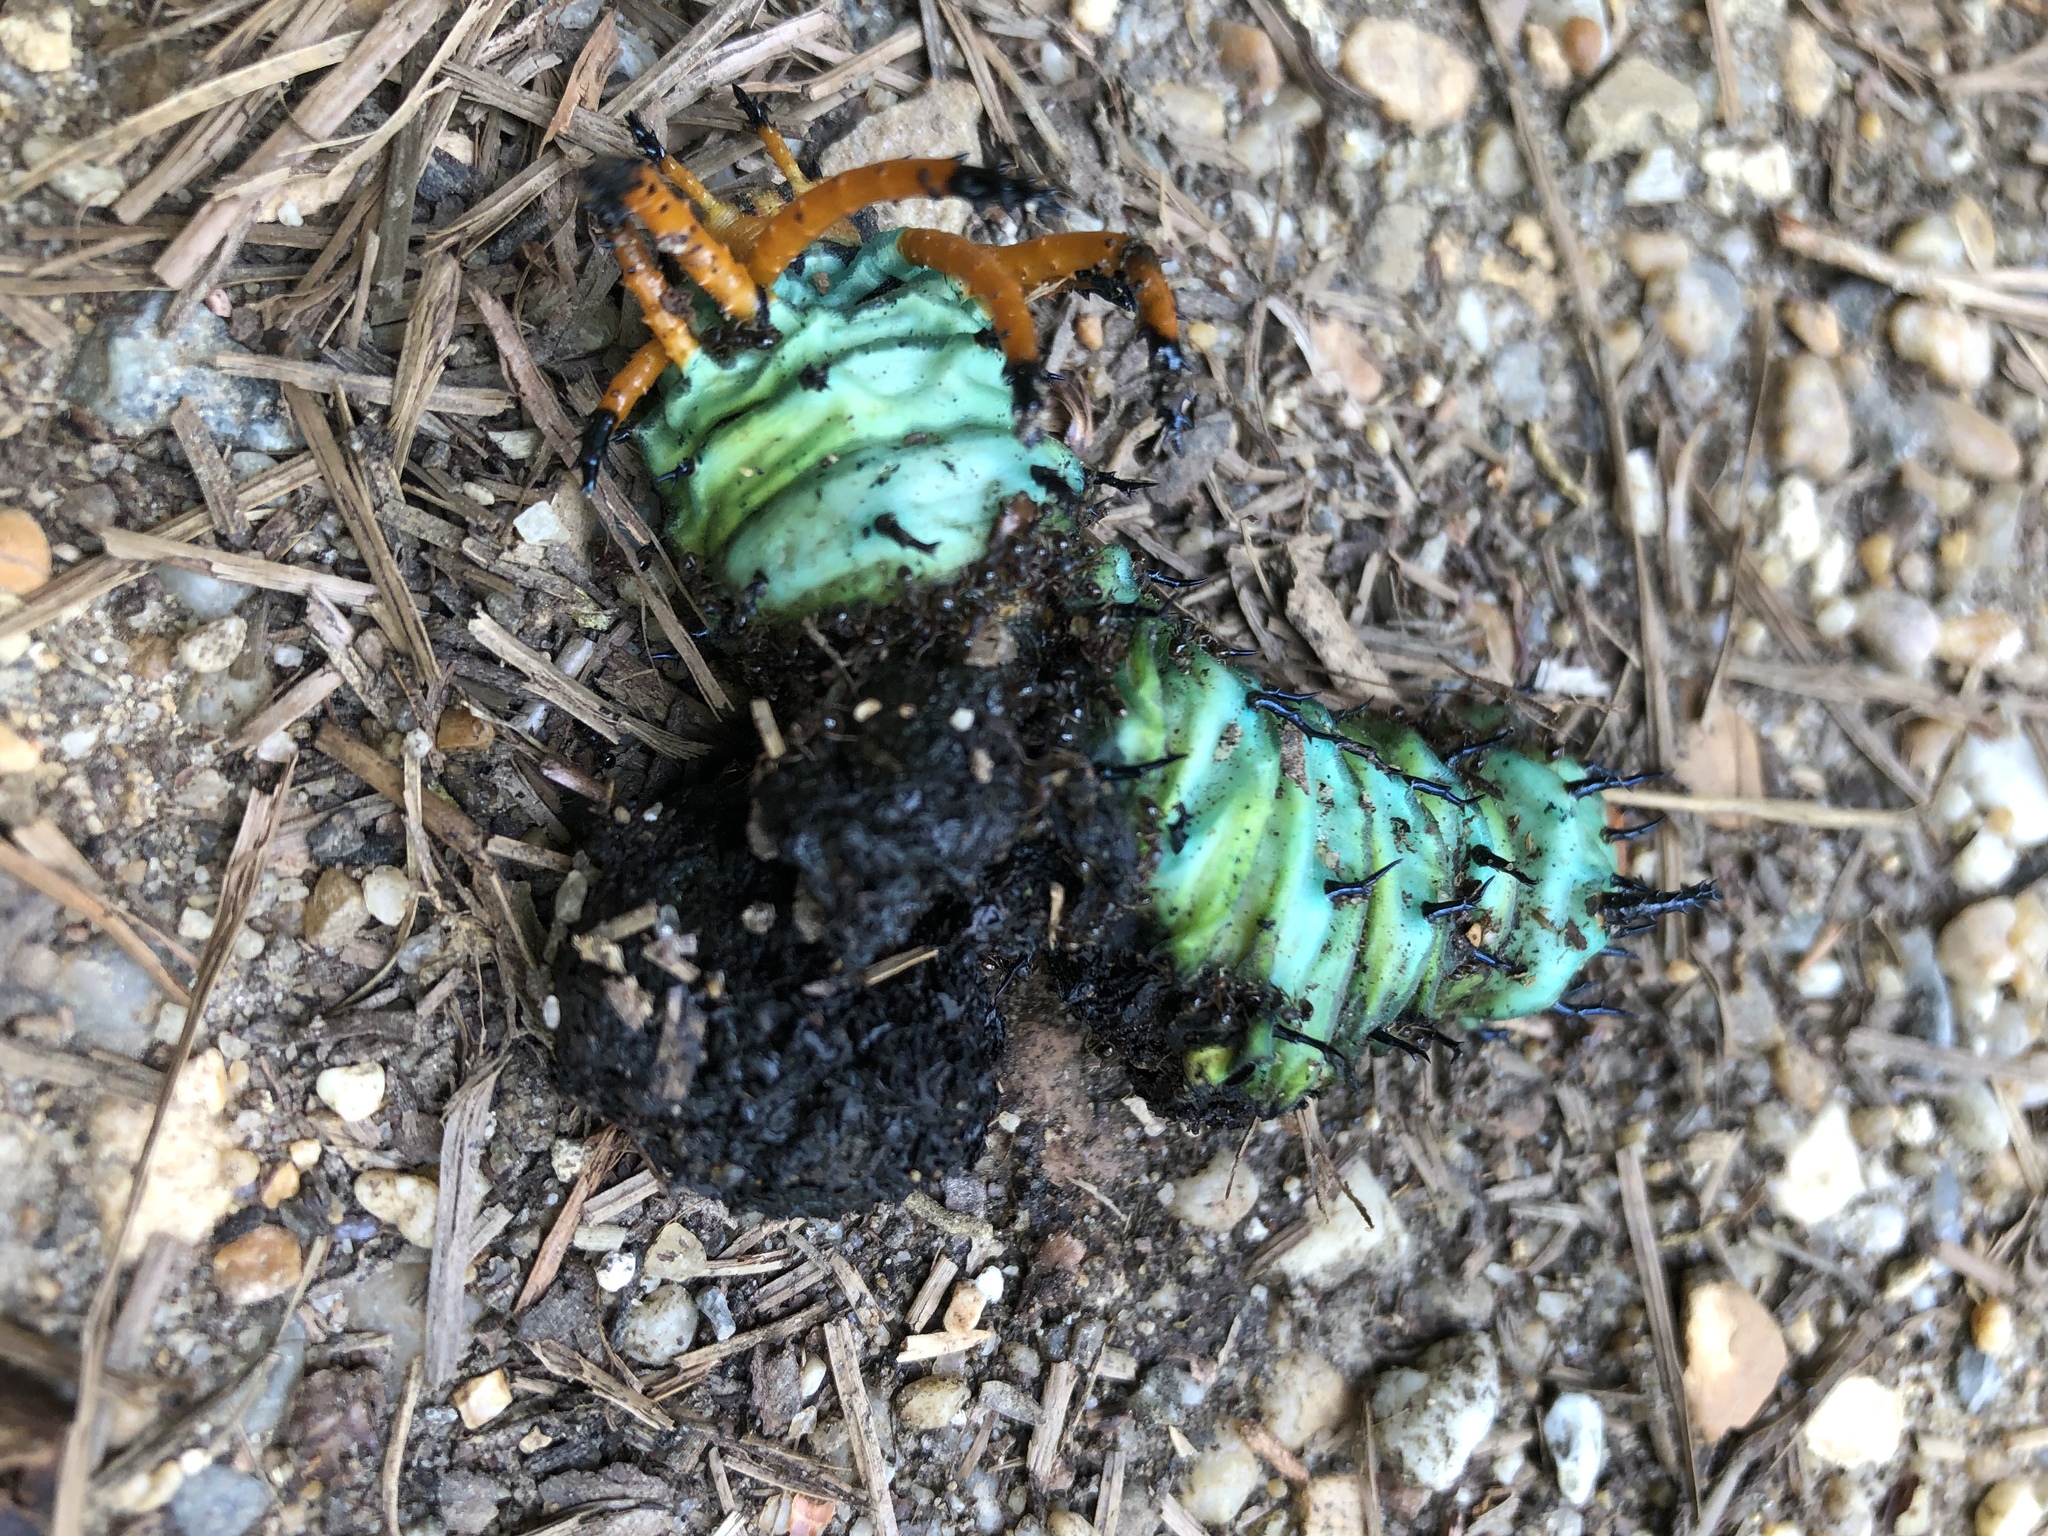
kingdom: Animalia
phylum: Arthropoda
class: Insecta
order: Lepidoptera
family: Saturniidae
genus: Citheronia
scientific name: Citheronia regalis
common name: Hickory horned devil
